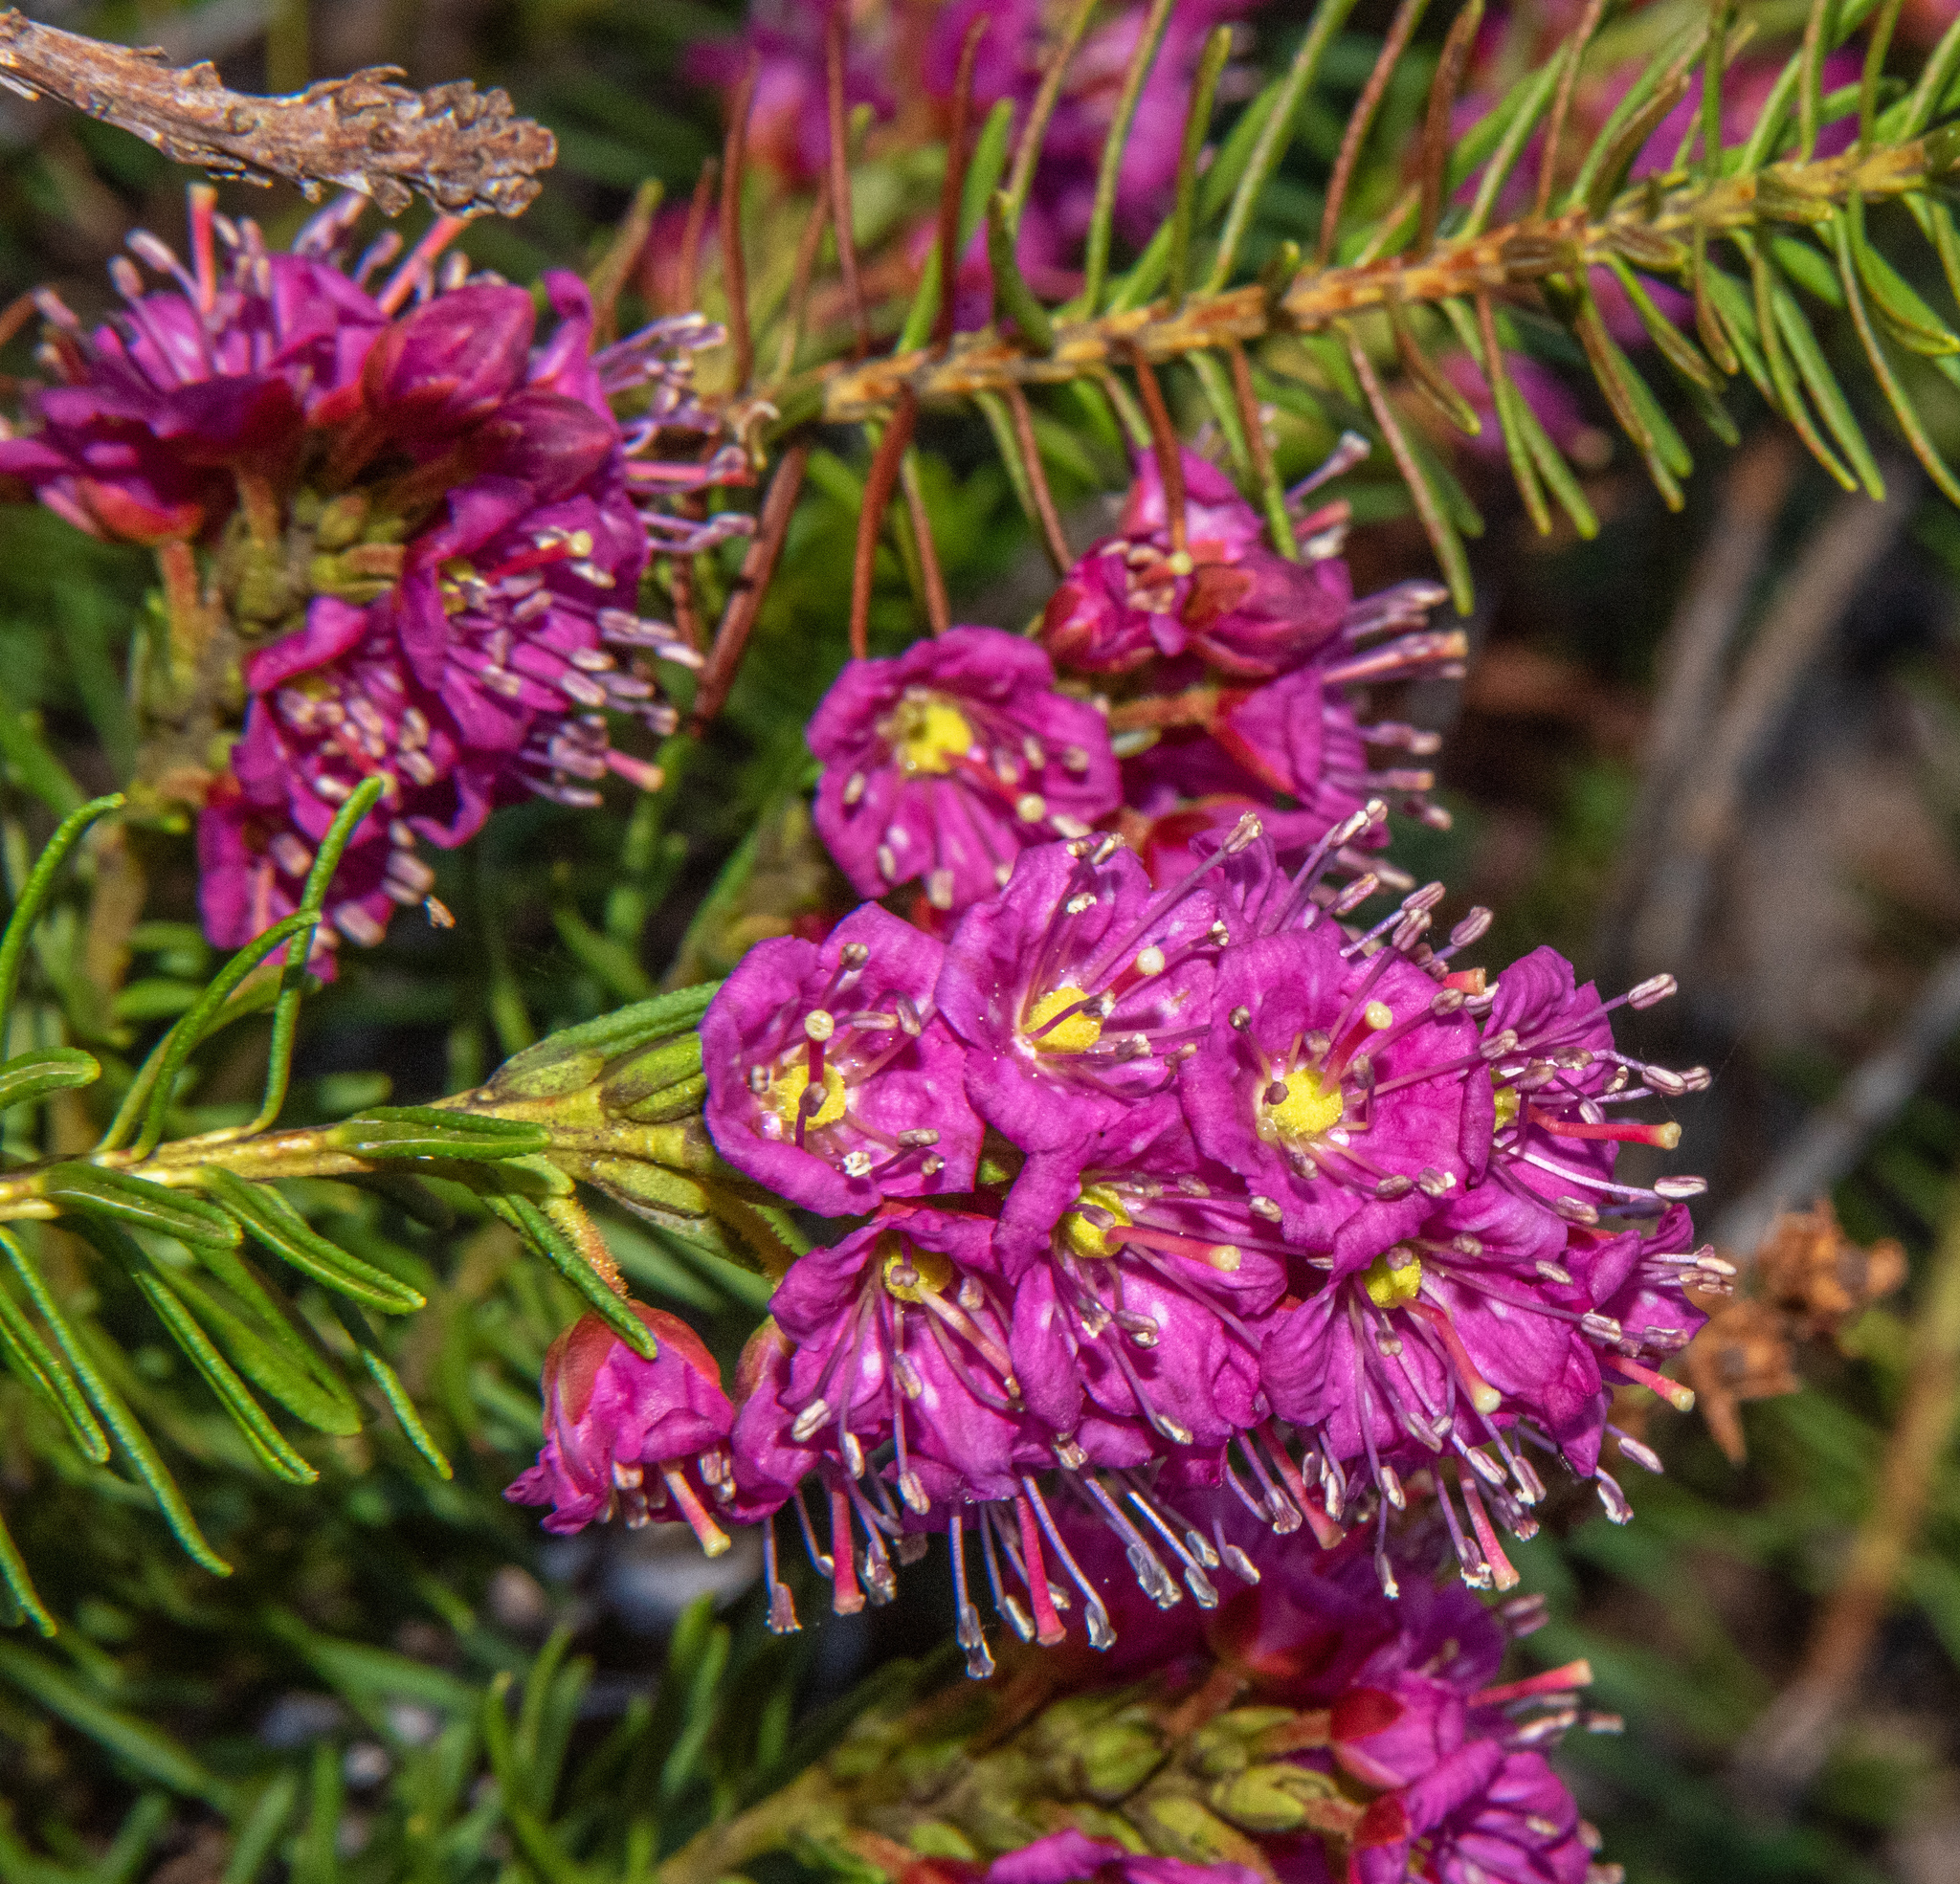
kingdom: Plantae
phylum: Tracheophyta
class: Magnoliopsida
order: Ericales
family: Ericaceae
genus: Phyllodoce
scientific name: Phyllodoce breweri
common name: Brewer's mountain-heather
